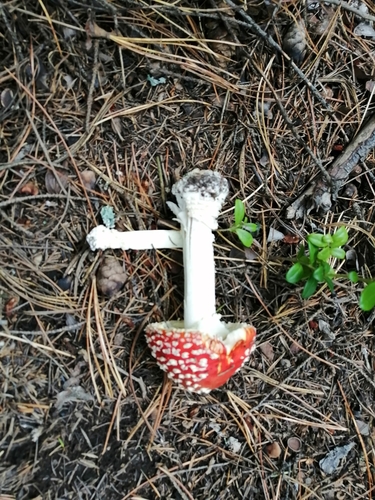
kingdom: Fungi
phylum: Basidiomycota
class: Agaricomycetes
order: Agaricales
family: Amanitaceae
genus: Amanita
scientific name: Amanita muscaria
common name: Fly agaric
